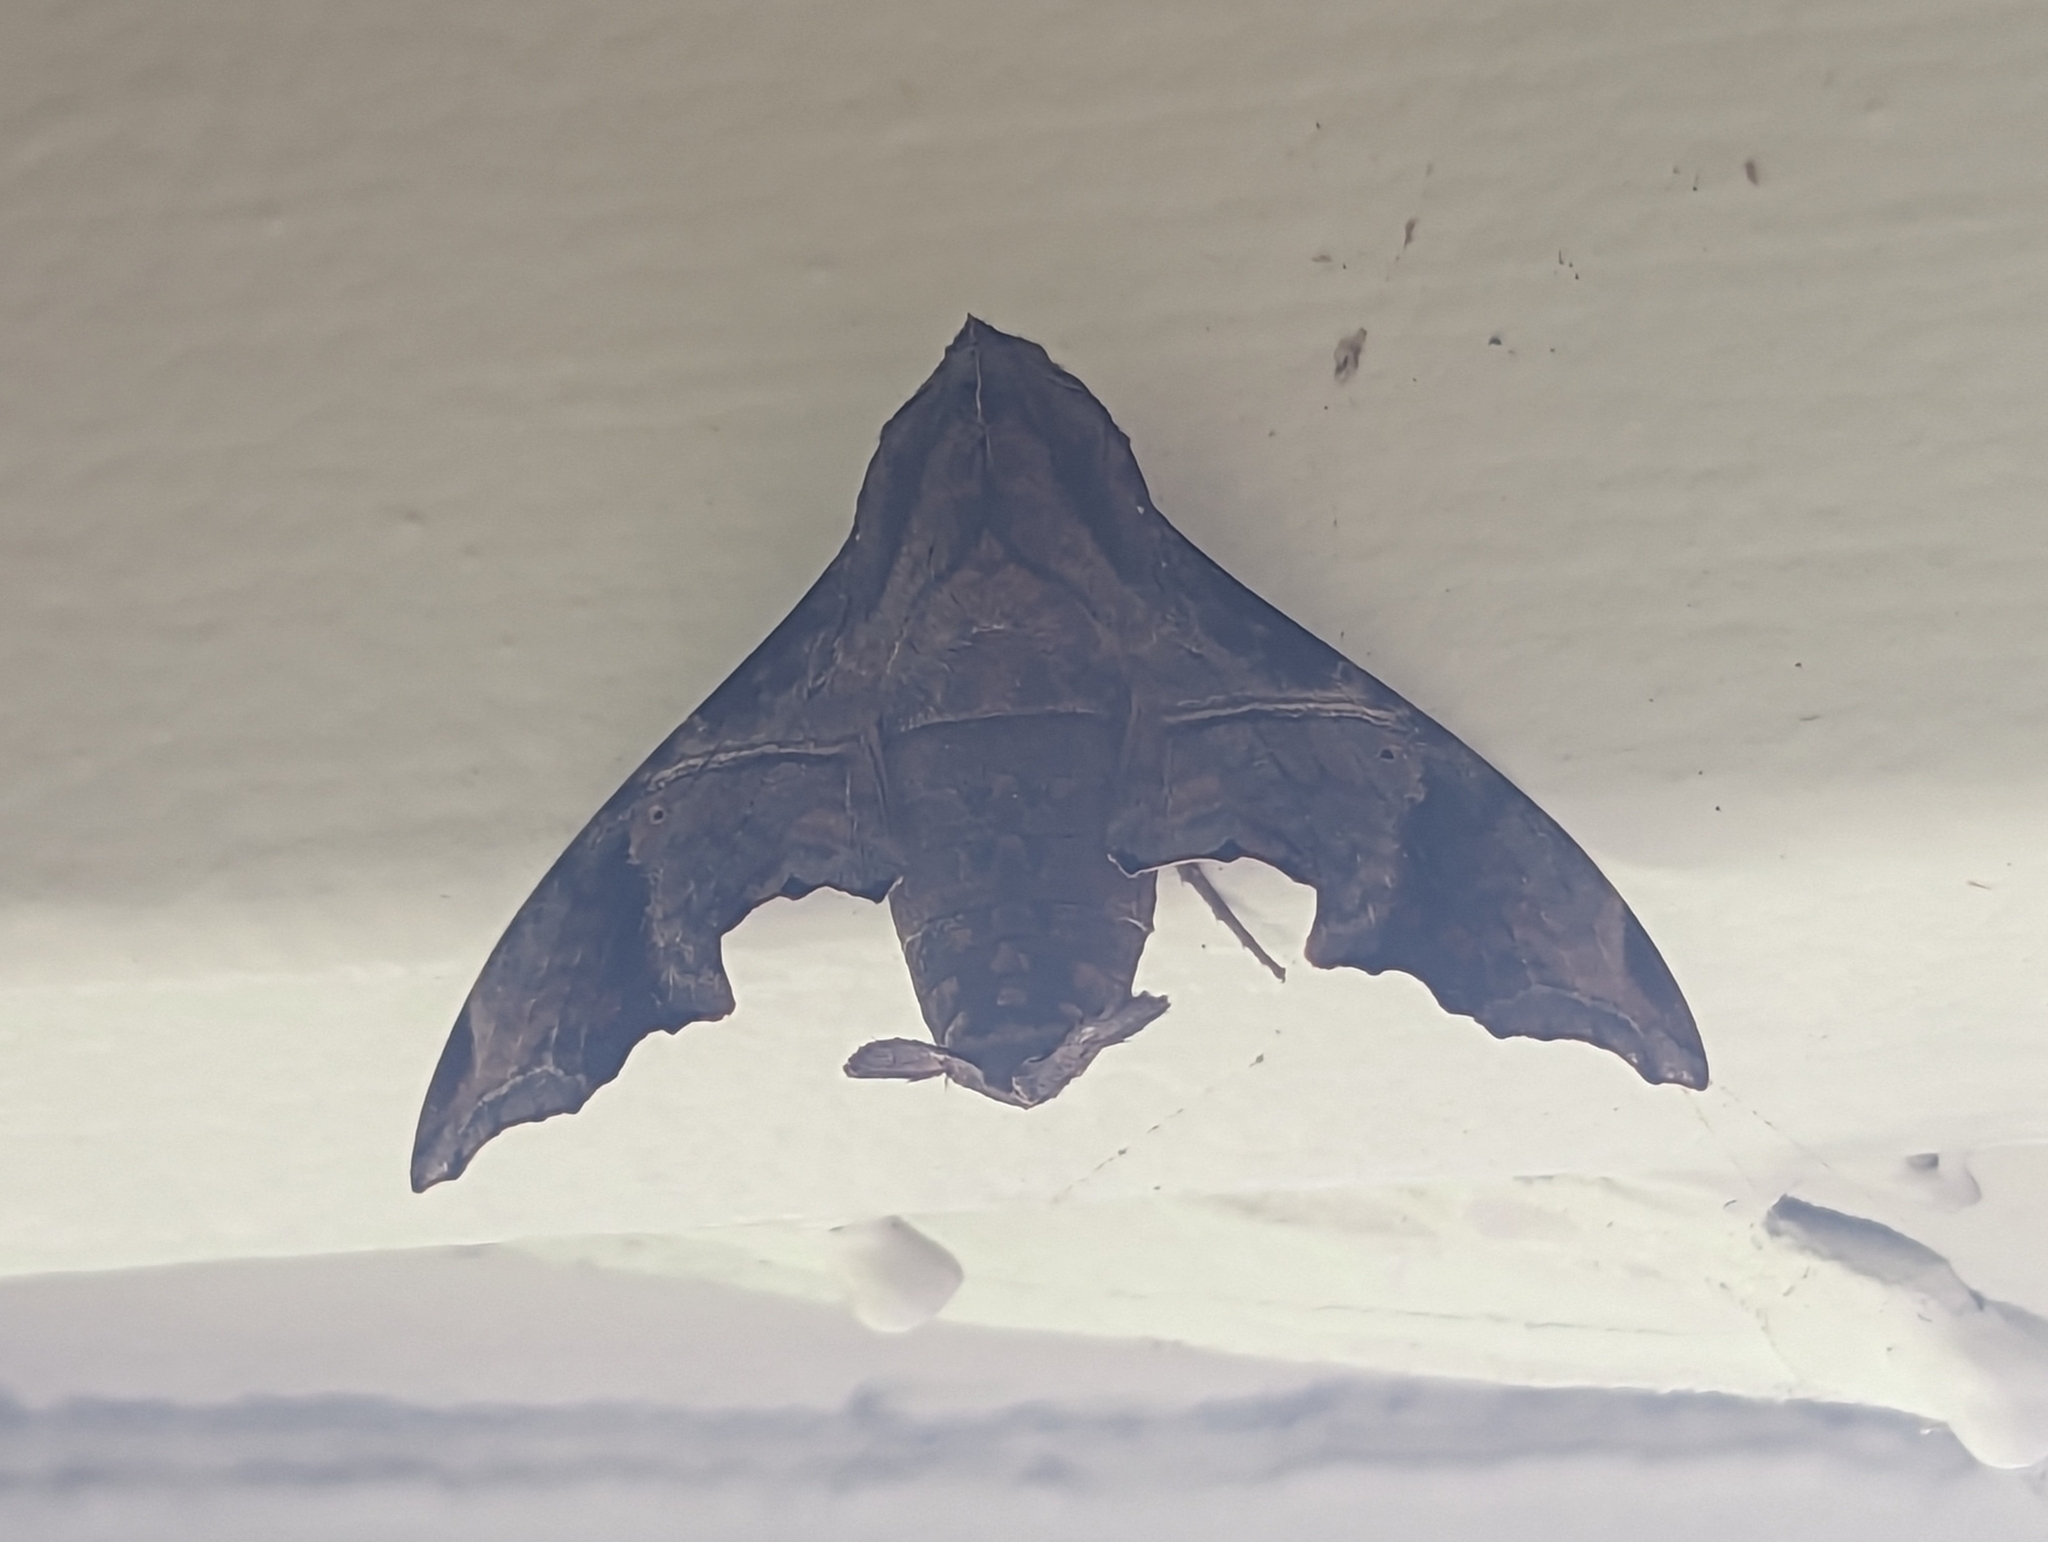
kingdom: Animalia
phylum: Arthropoda
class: Insecta
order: Lepidoptera
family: Sphingidae
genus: Enyo
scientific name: Enyo lugubris
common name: Mournful sphinx
